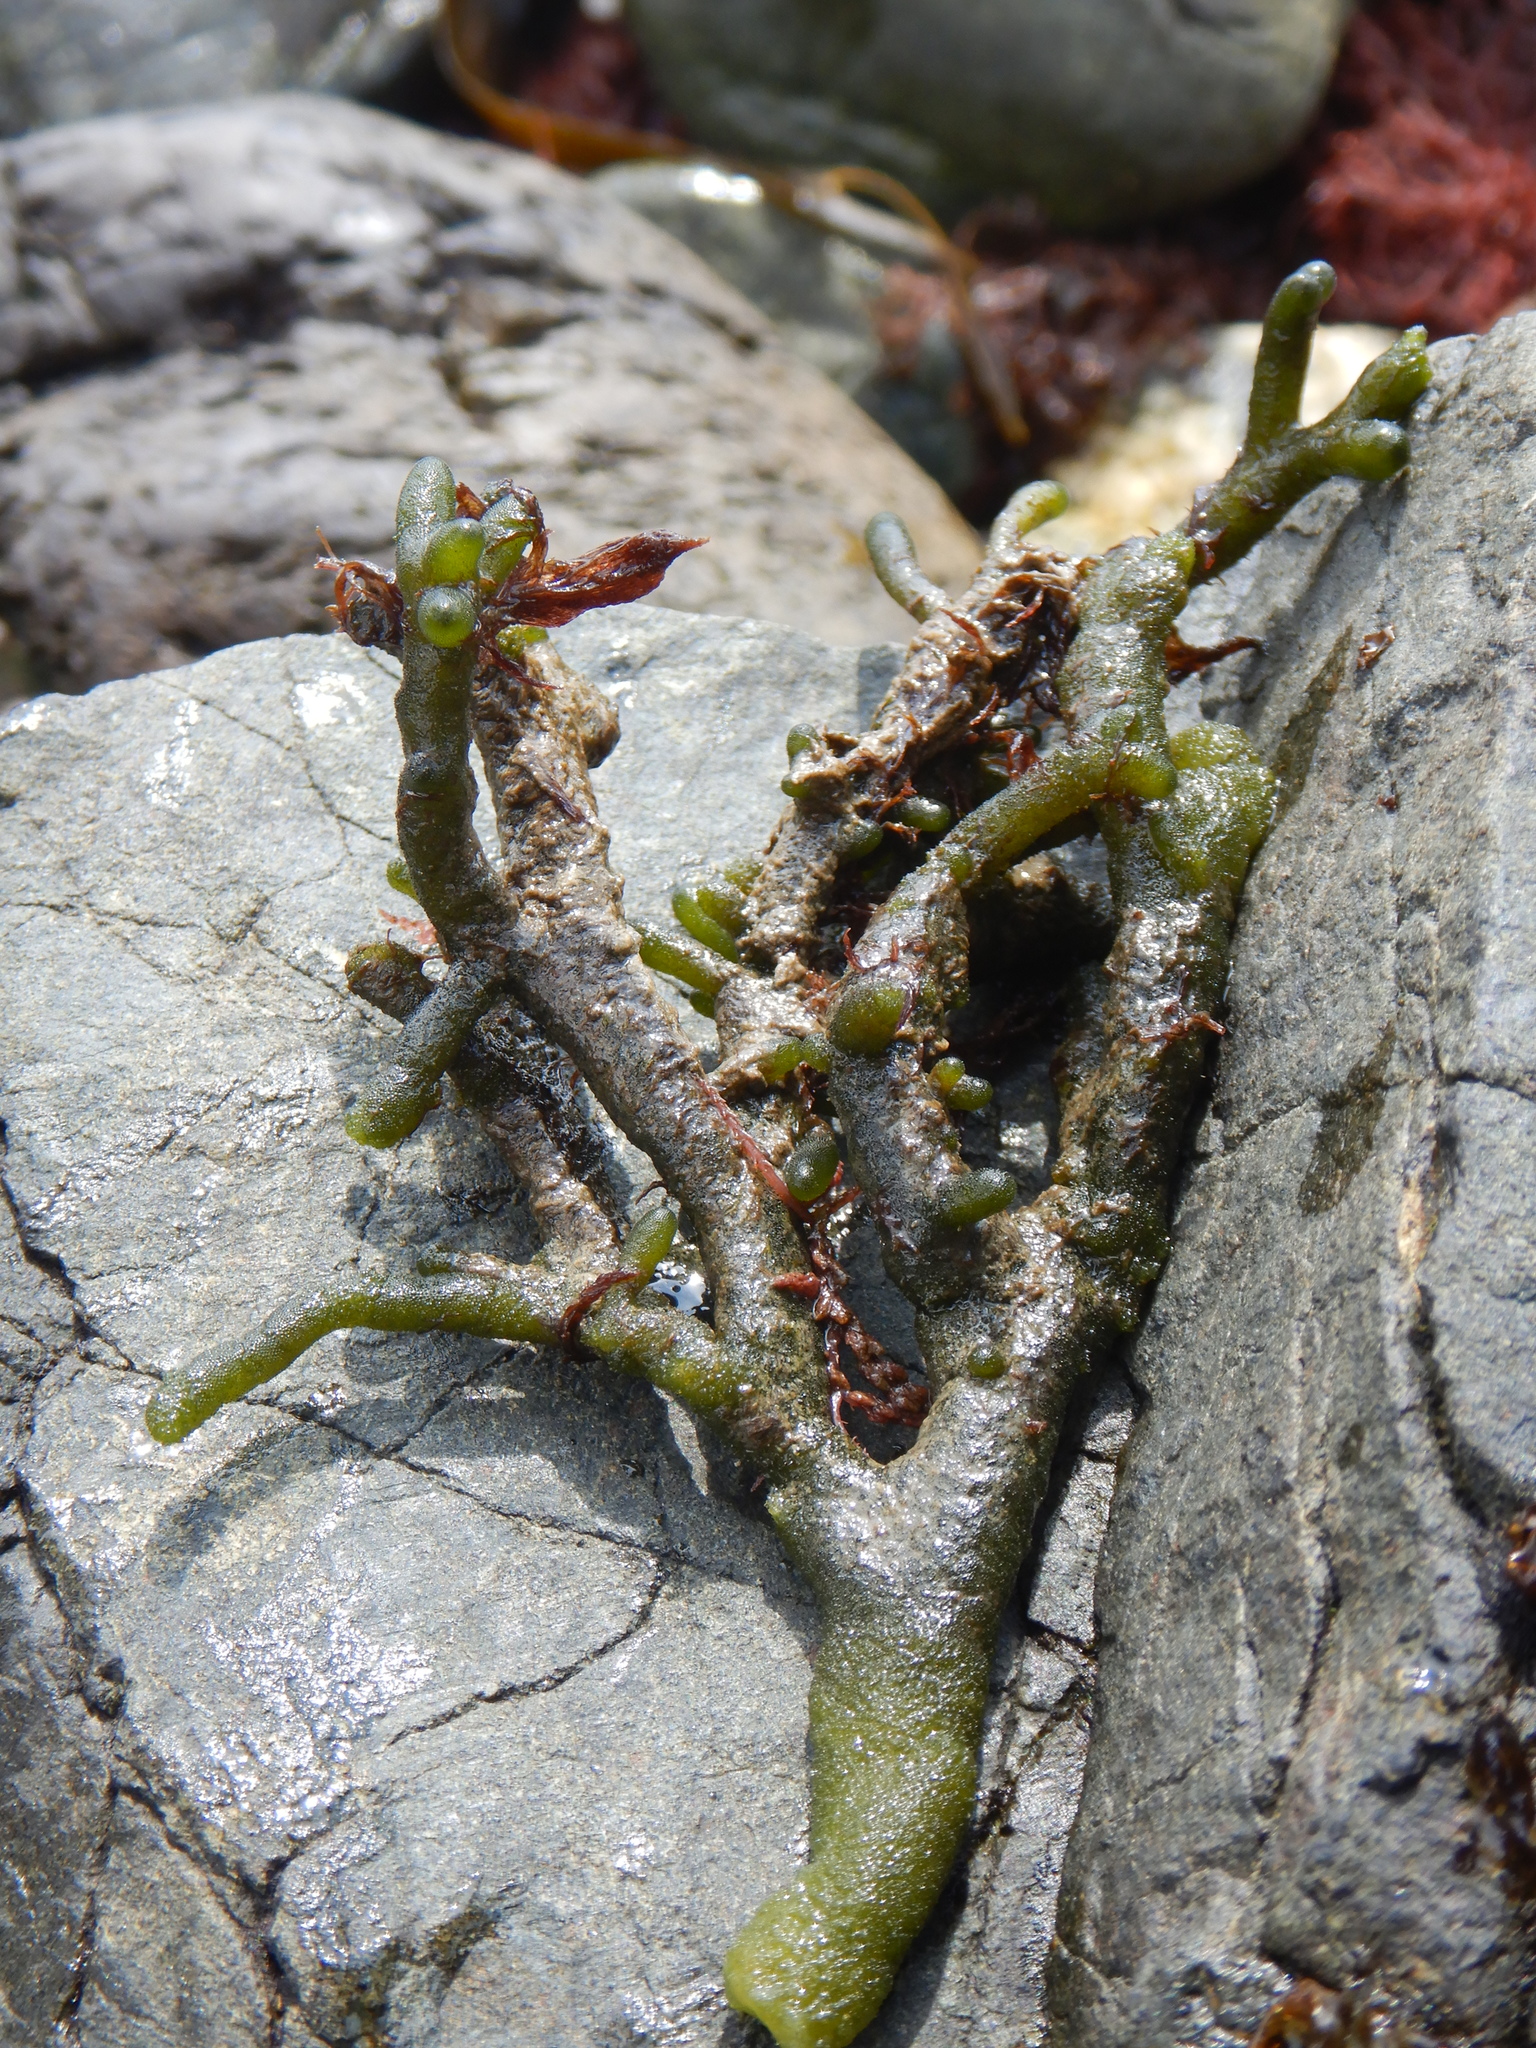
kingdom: Plantae
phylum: Chlorophyta
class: Ulvophyceae
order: Bryopsidales
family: Codiaceae
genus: Codium
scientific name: Codium fragile
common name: Dead man's fingers
